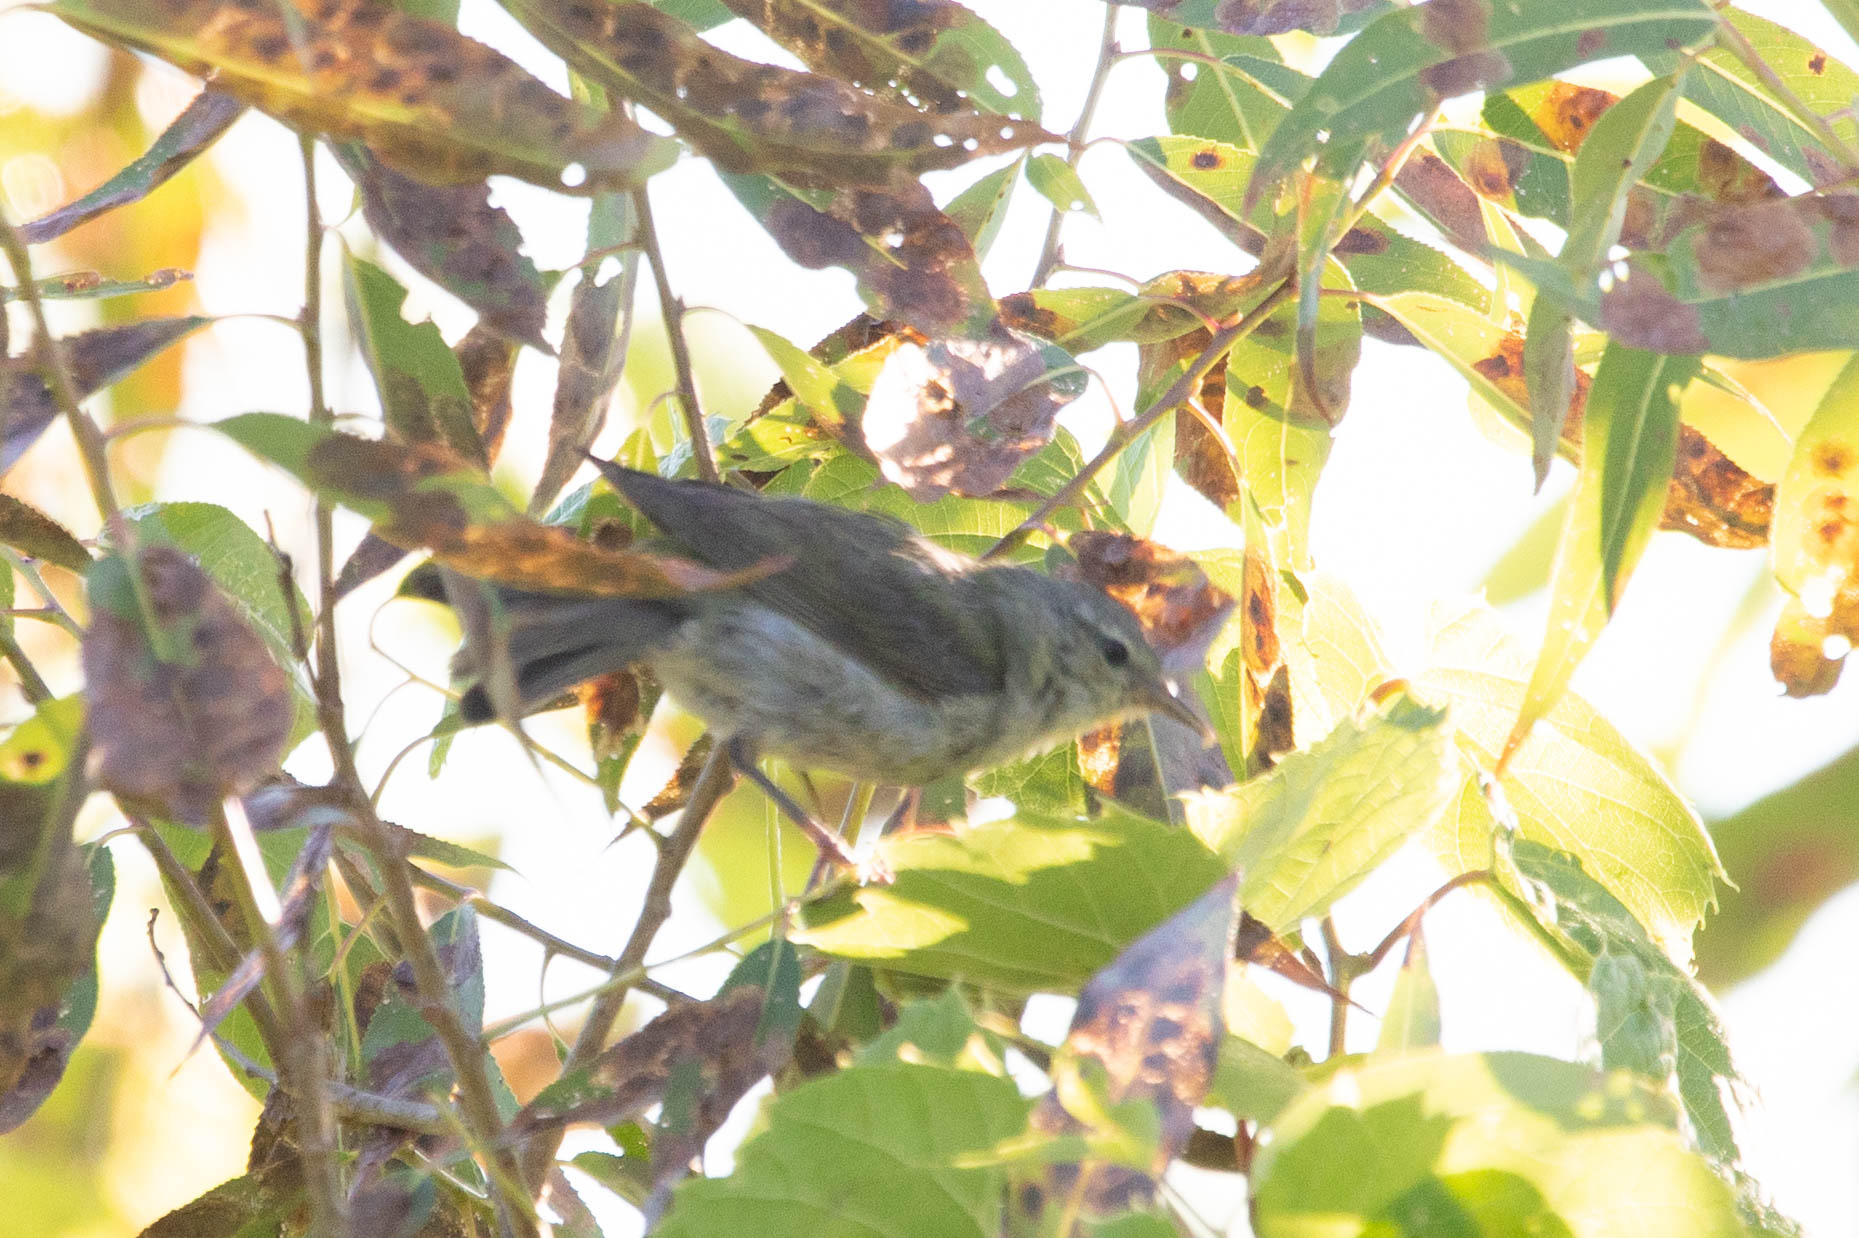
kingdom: Animalia
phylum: Chordata
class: Aves
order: Passeriformes
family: Vireonidae
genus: Vireo
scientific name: Vireo gilvus
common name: Warbling vireo
